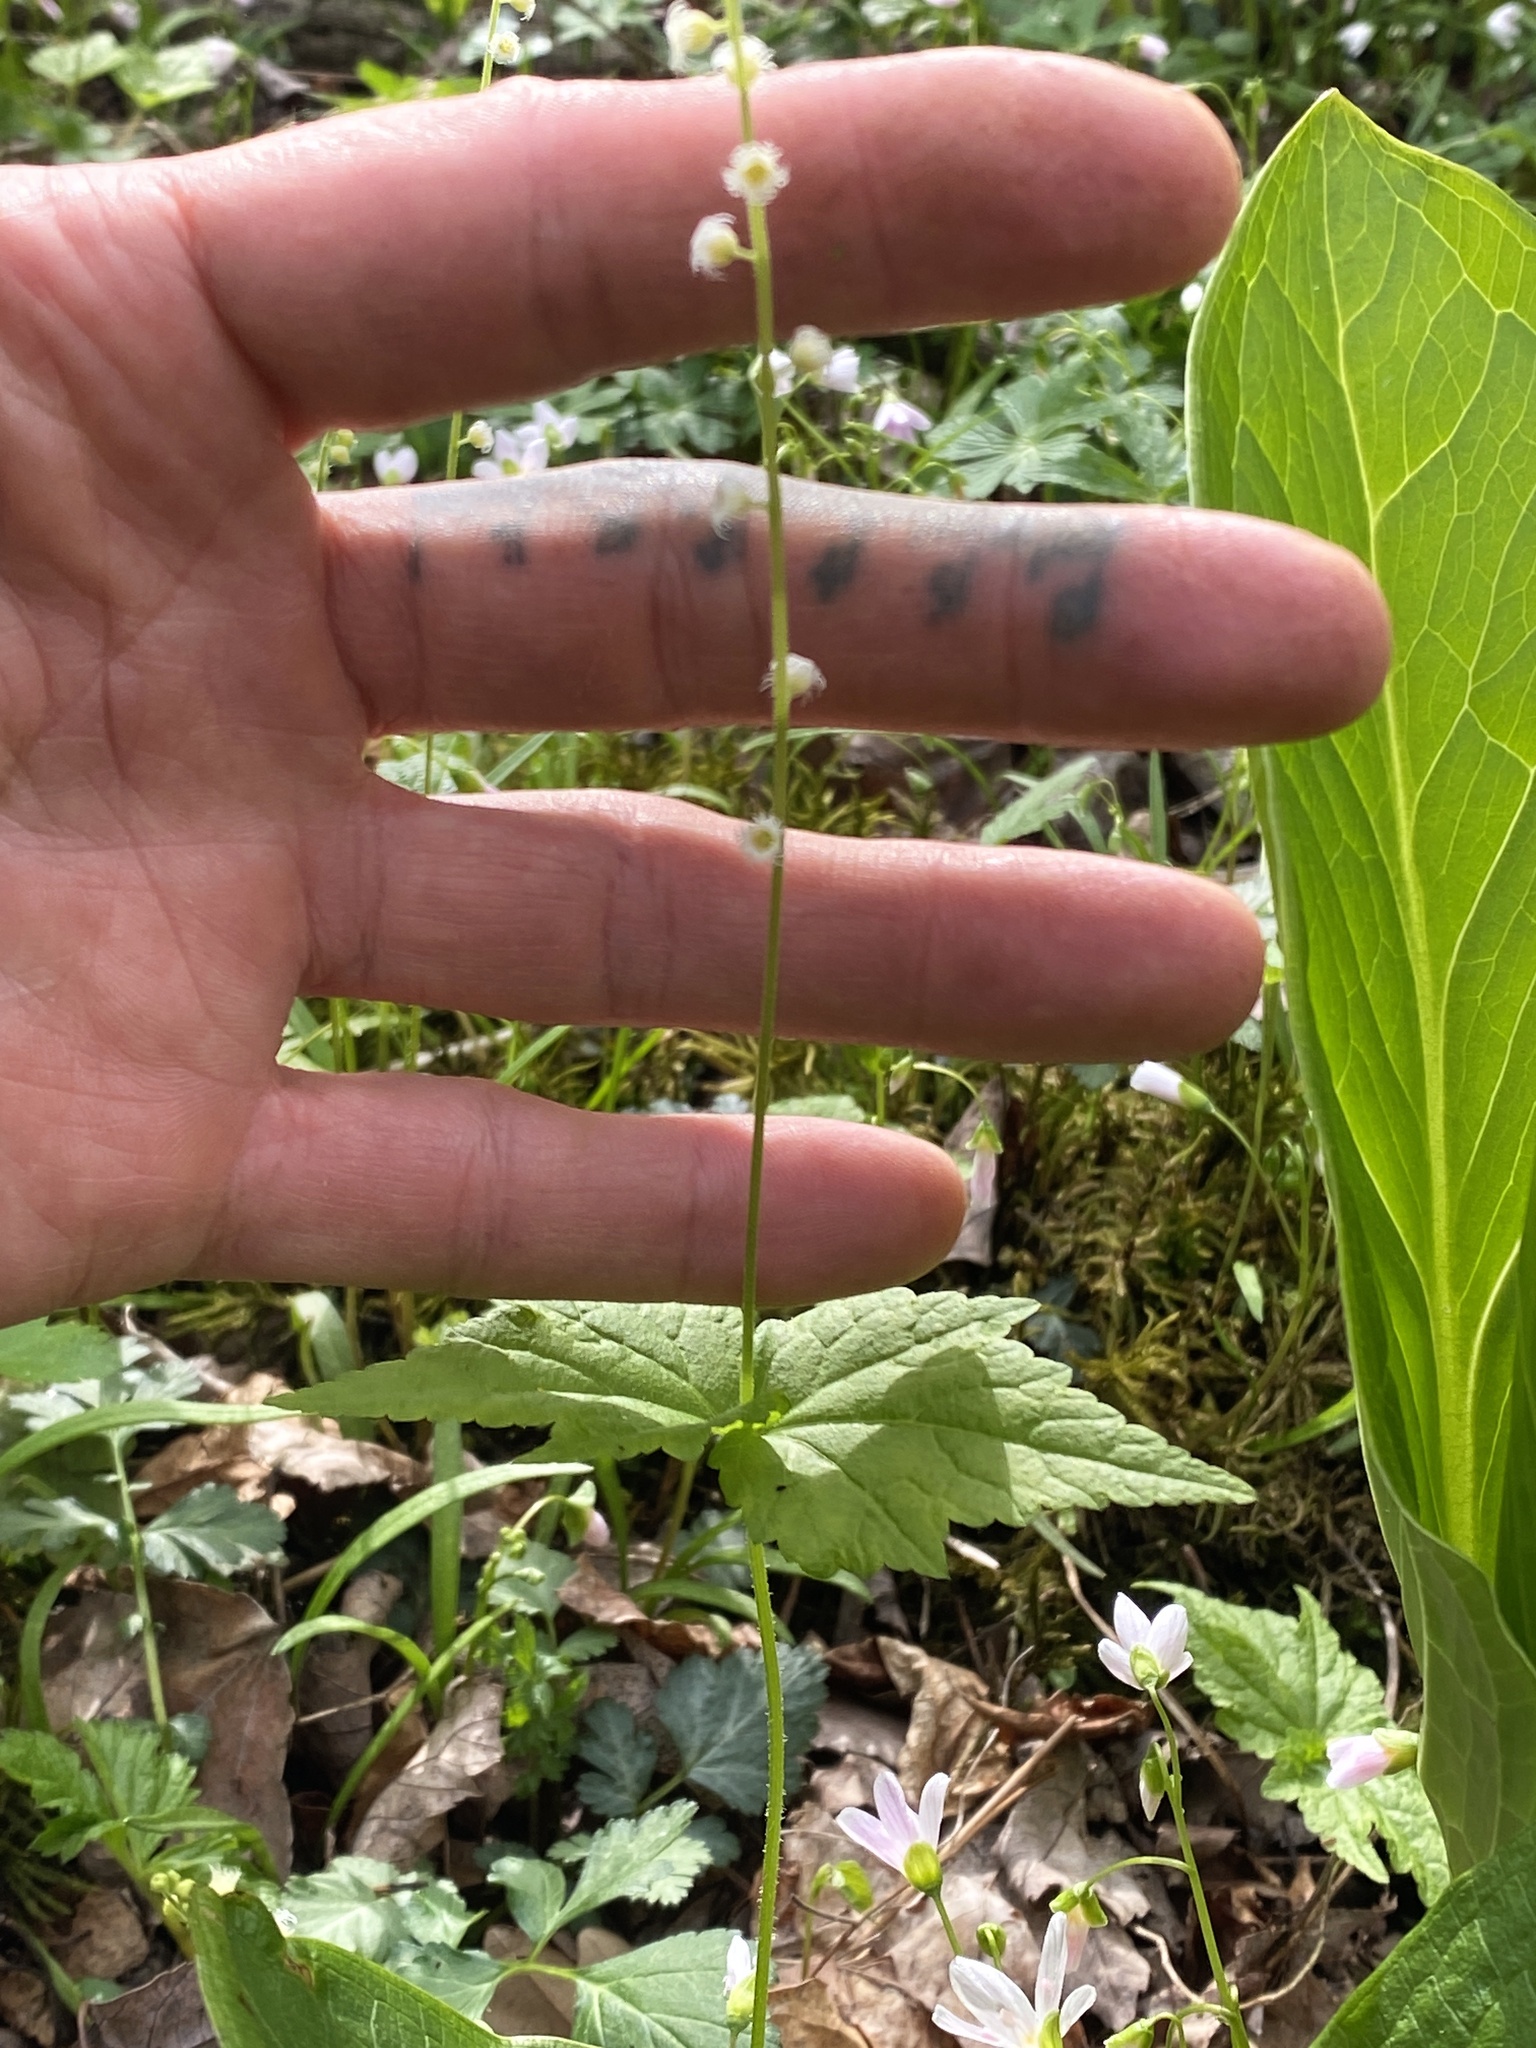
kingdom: Plantae
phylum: Tracheophyta
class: Magnoliopsida
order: Saxifragales
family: Saxifragaceae
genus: Mitella
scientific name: Mitella diphylla
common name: Coolwort
